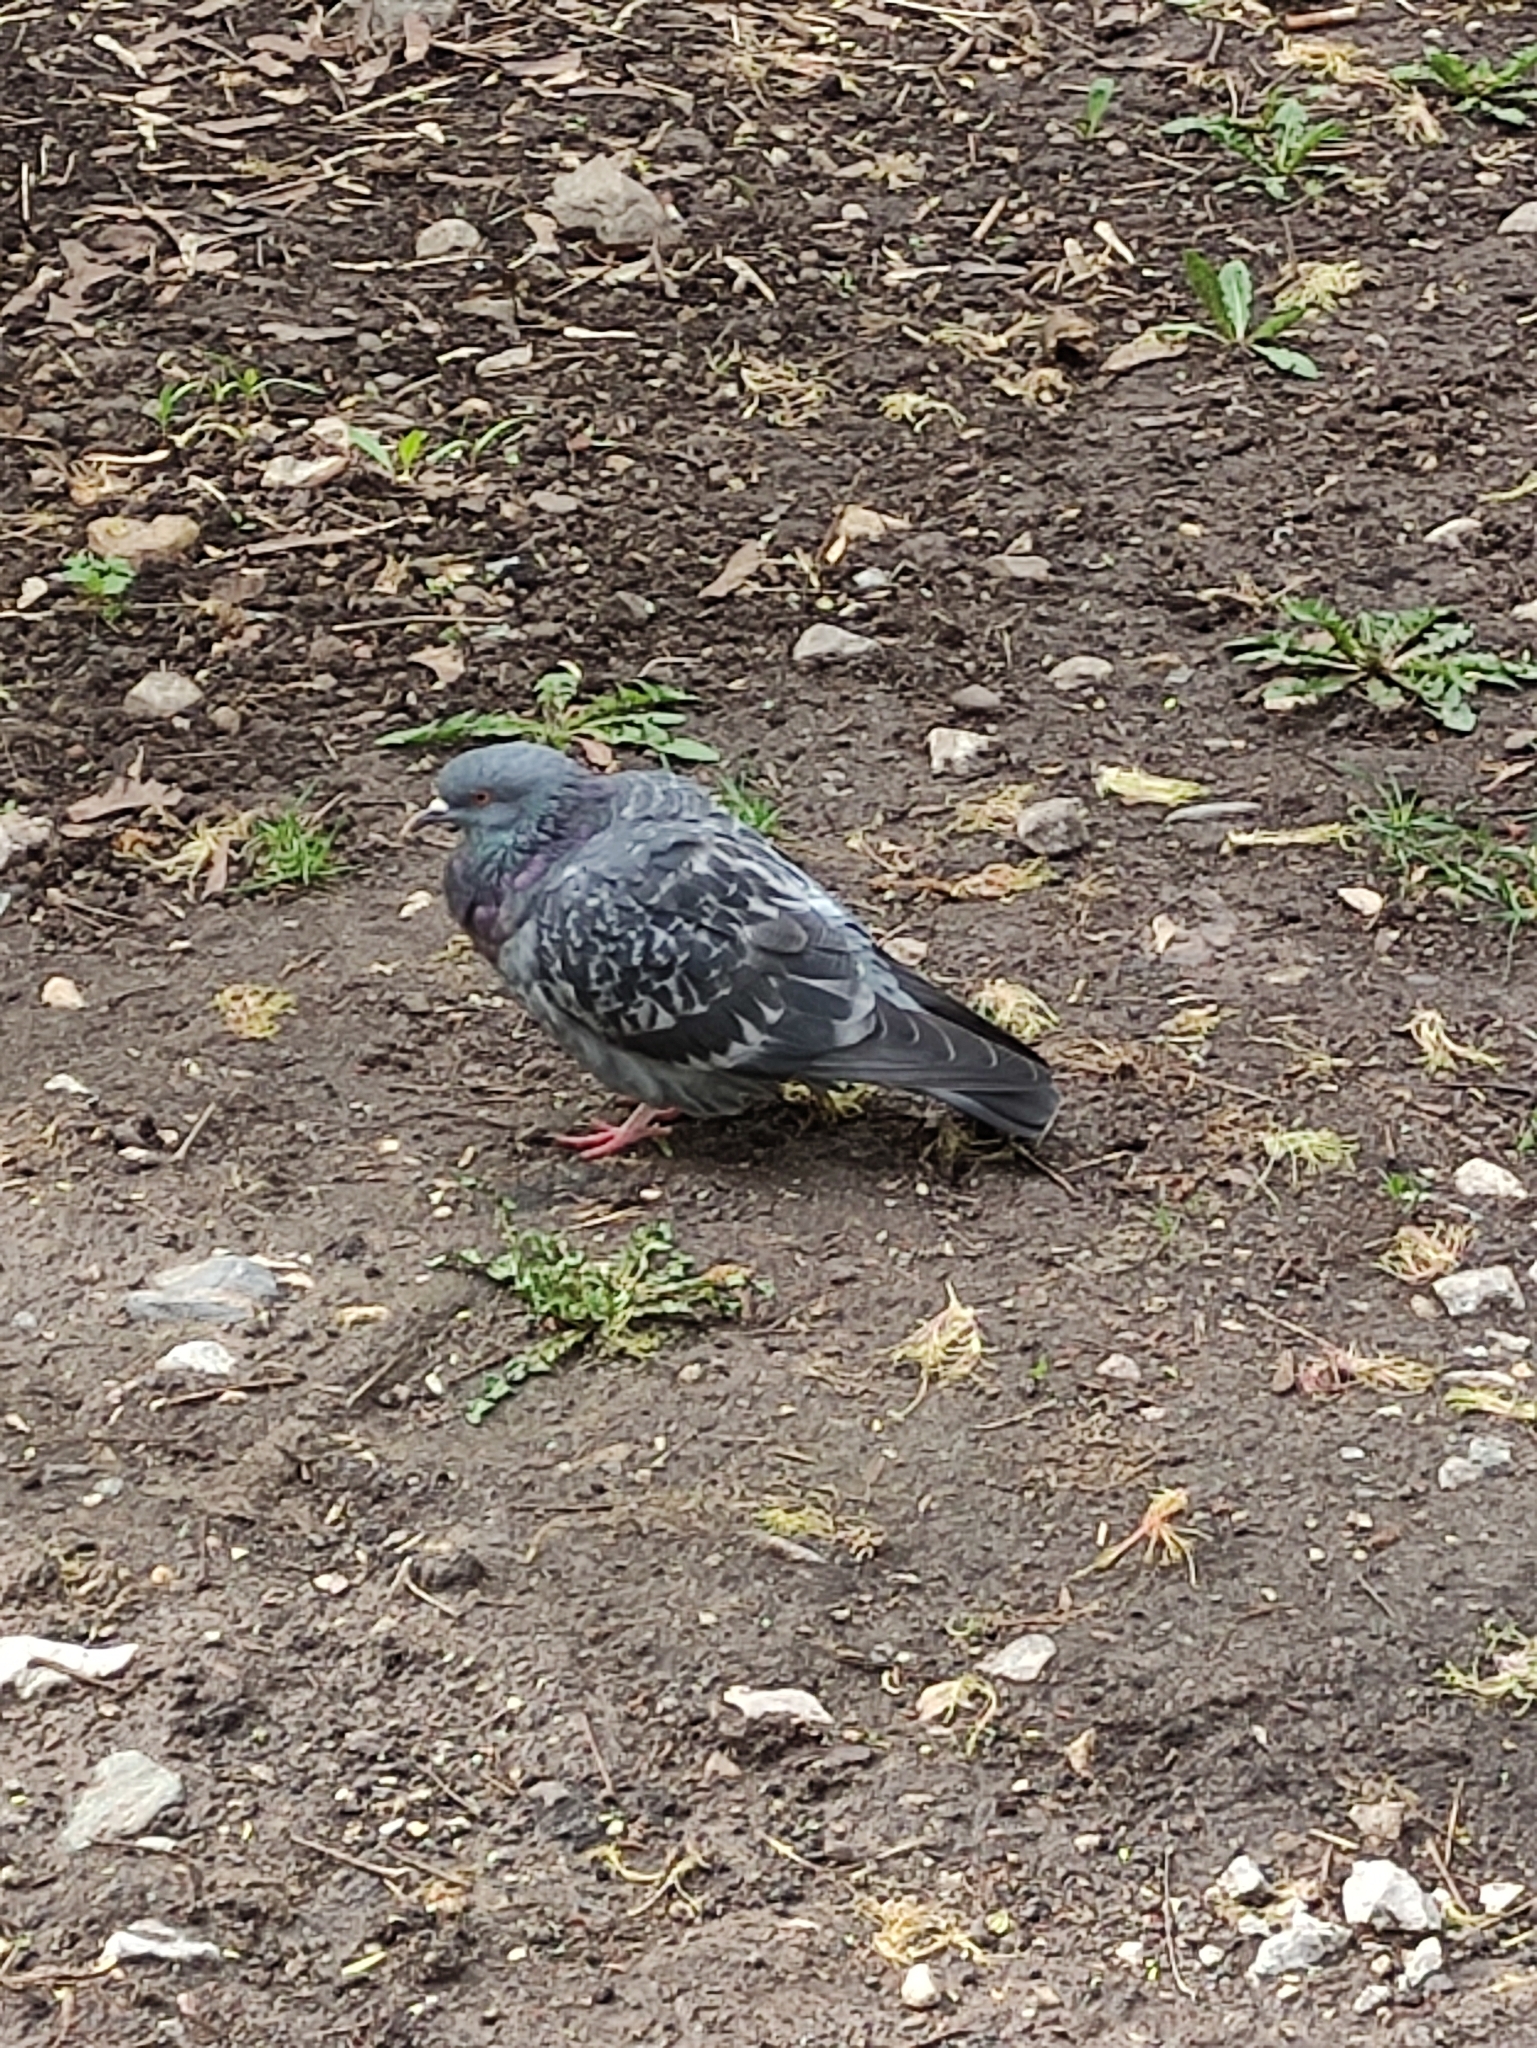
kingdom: Animalia
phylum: Chordata
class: Aves
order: Columbiformes
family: Columbidae
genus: Columba
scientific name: Columba livia
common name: Rock pigeon
